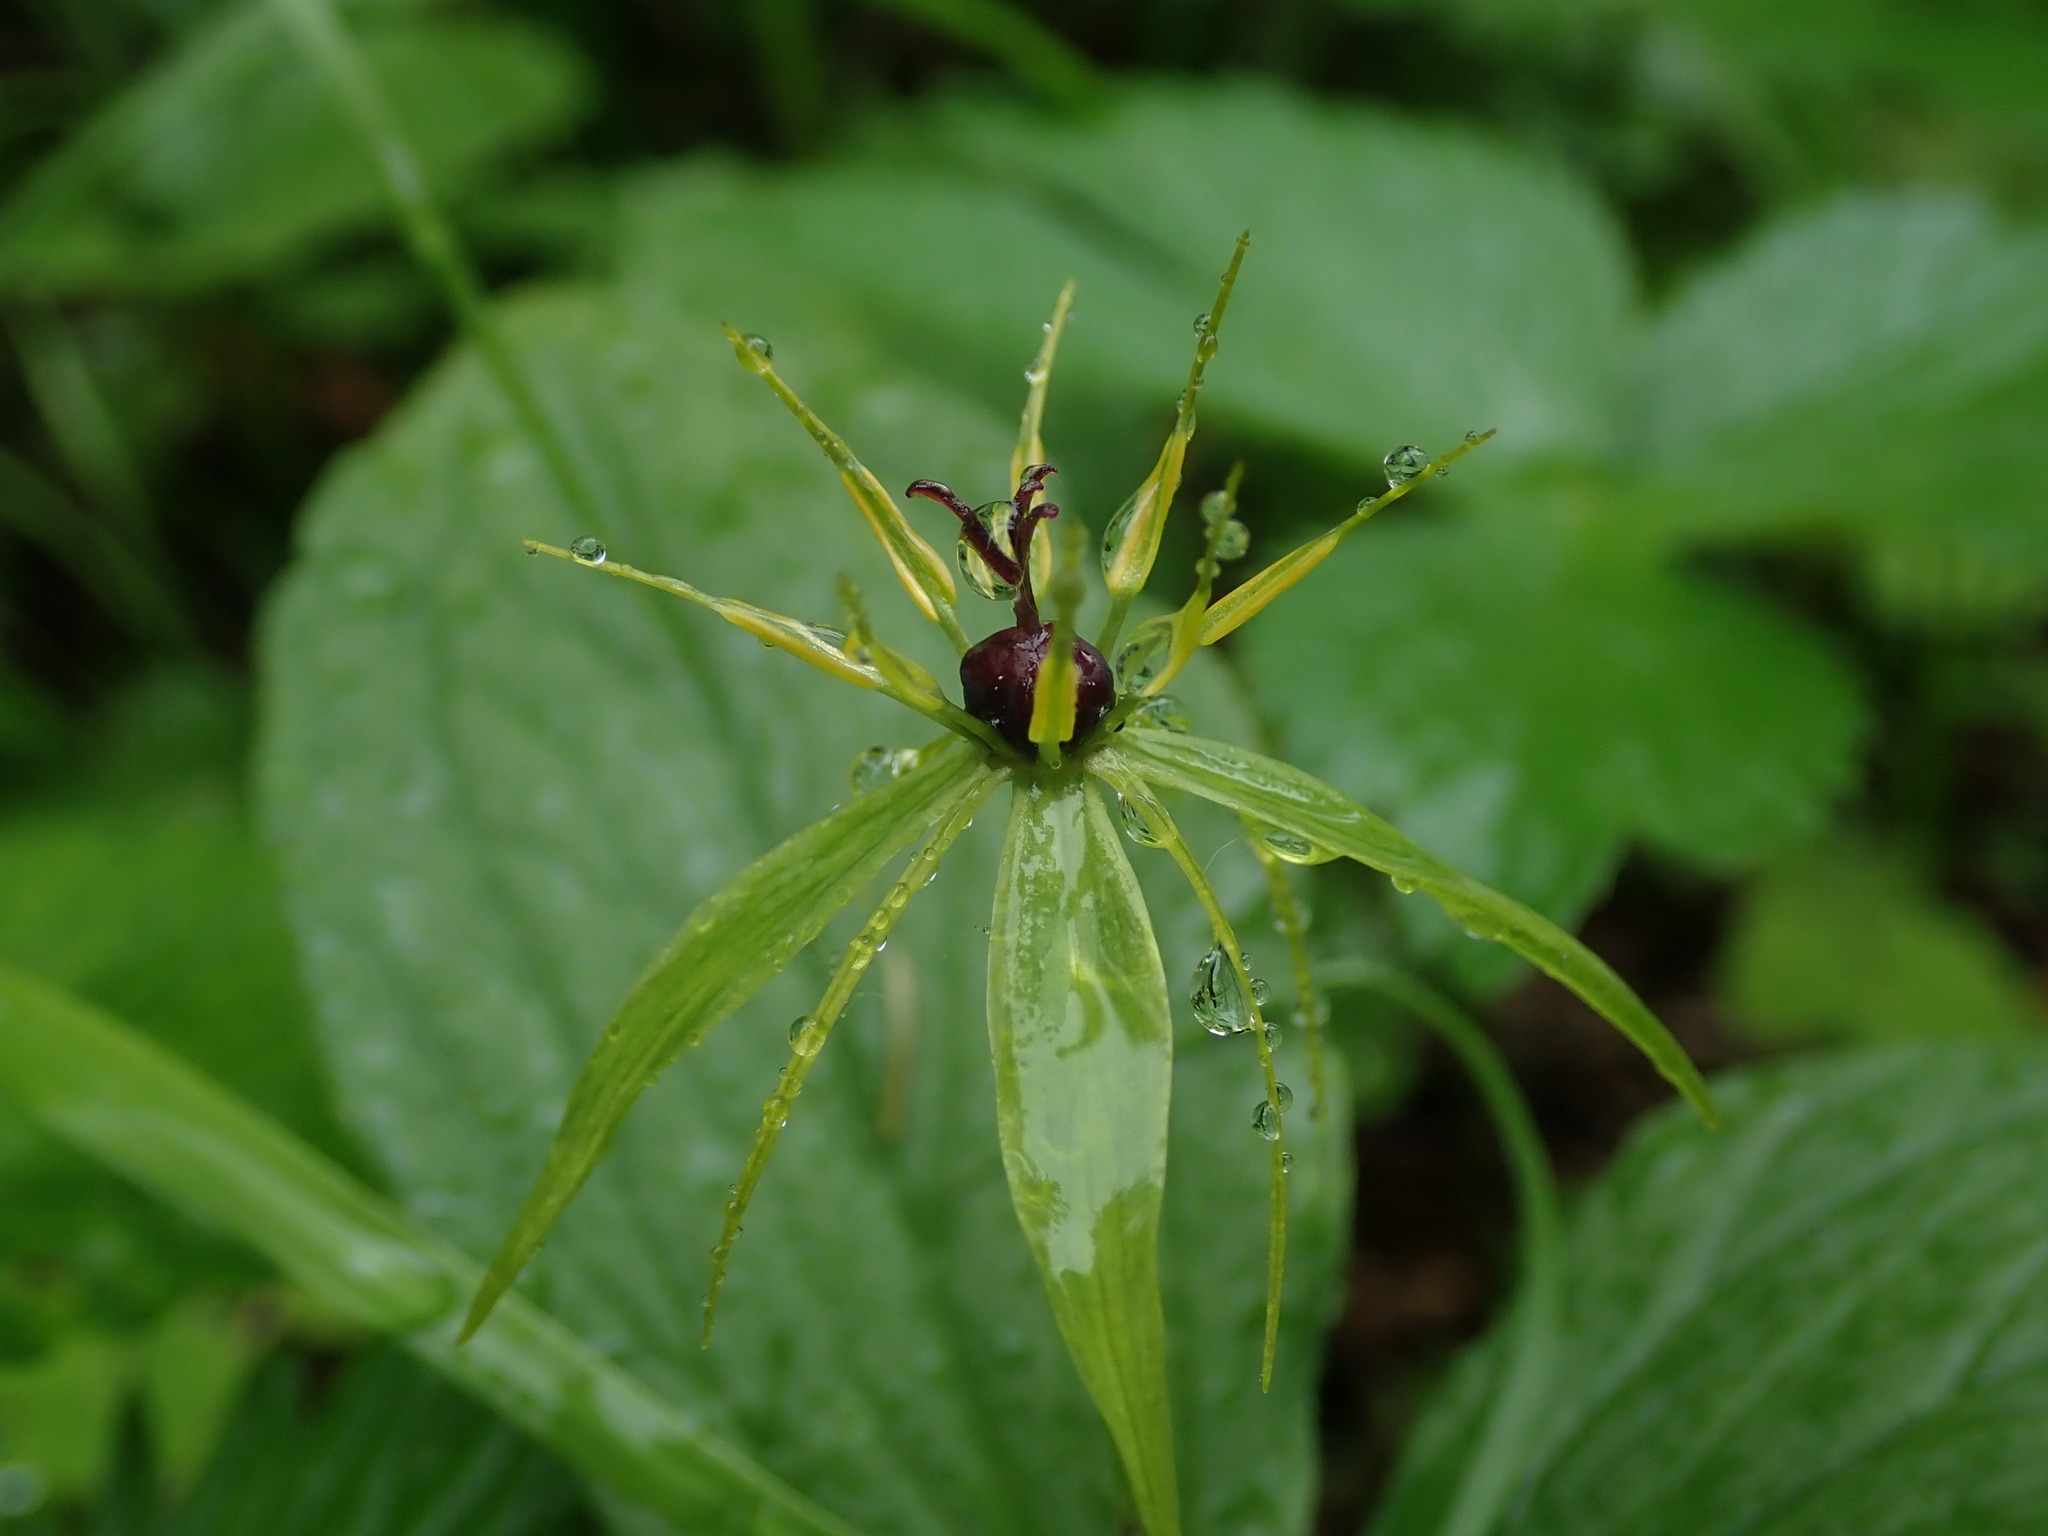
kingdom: Plantae
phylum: Tracheophyta
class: Liliopsida
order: Liliales
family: Melanthiaceae
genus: Paris
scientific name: Paris quadrifolia
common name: Herb-paris
